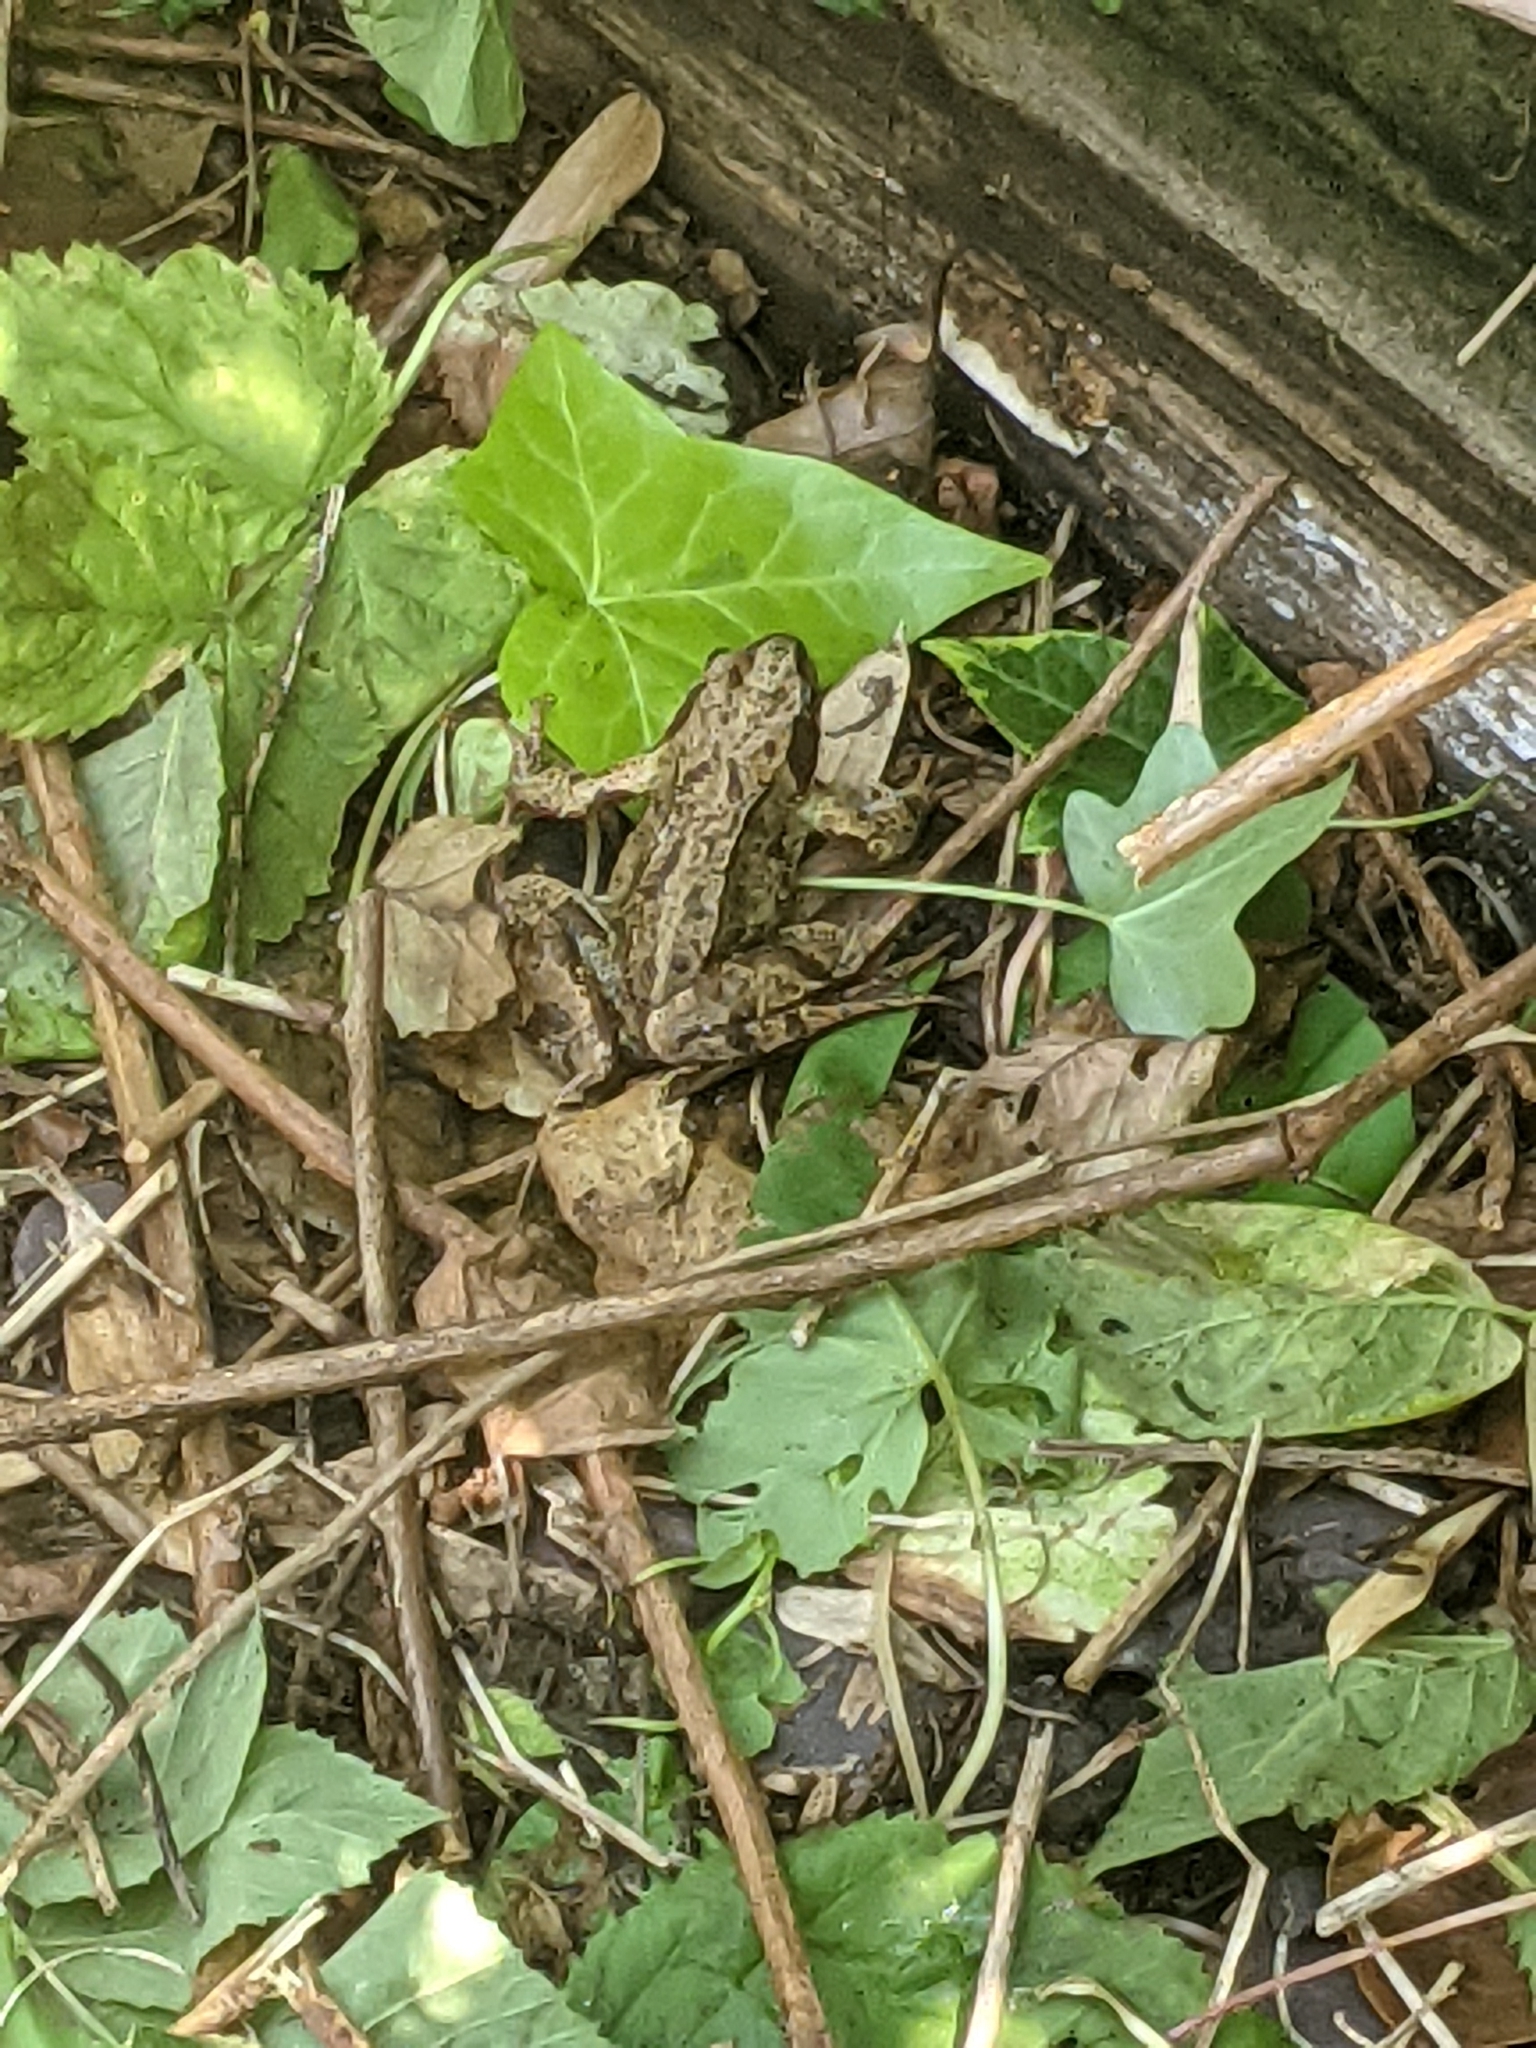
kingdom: Animalia
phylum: Chordata
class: Amphibia
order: Anura
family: Ranidae
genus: Rana
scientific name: Rana temporaria
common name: Common frog
